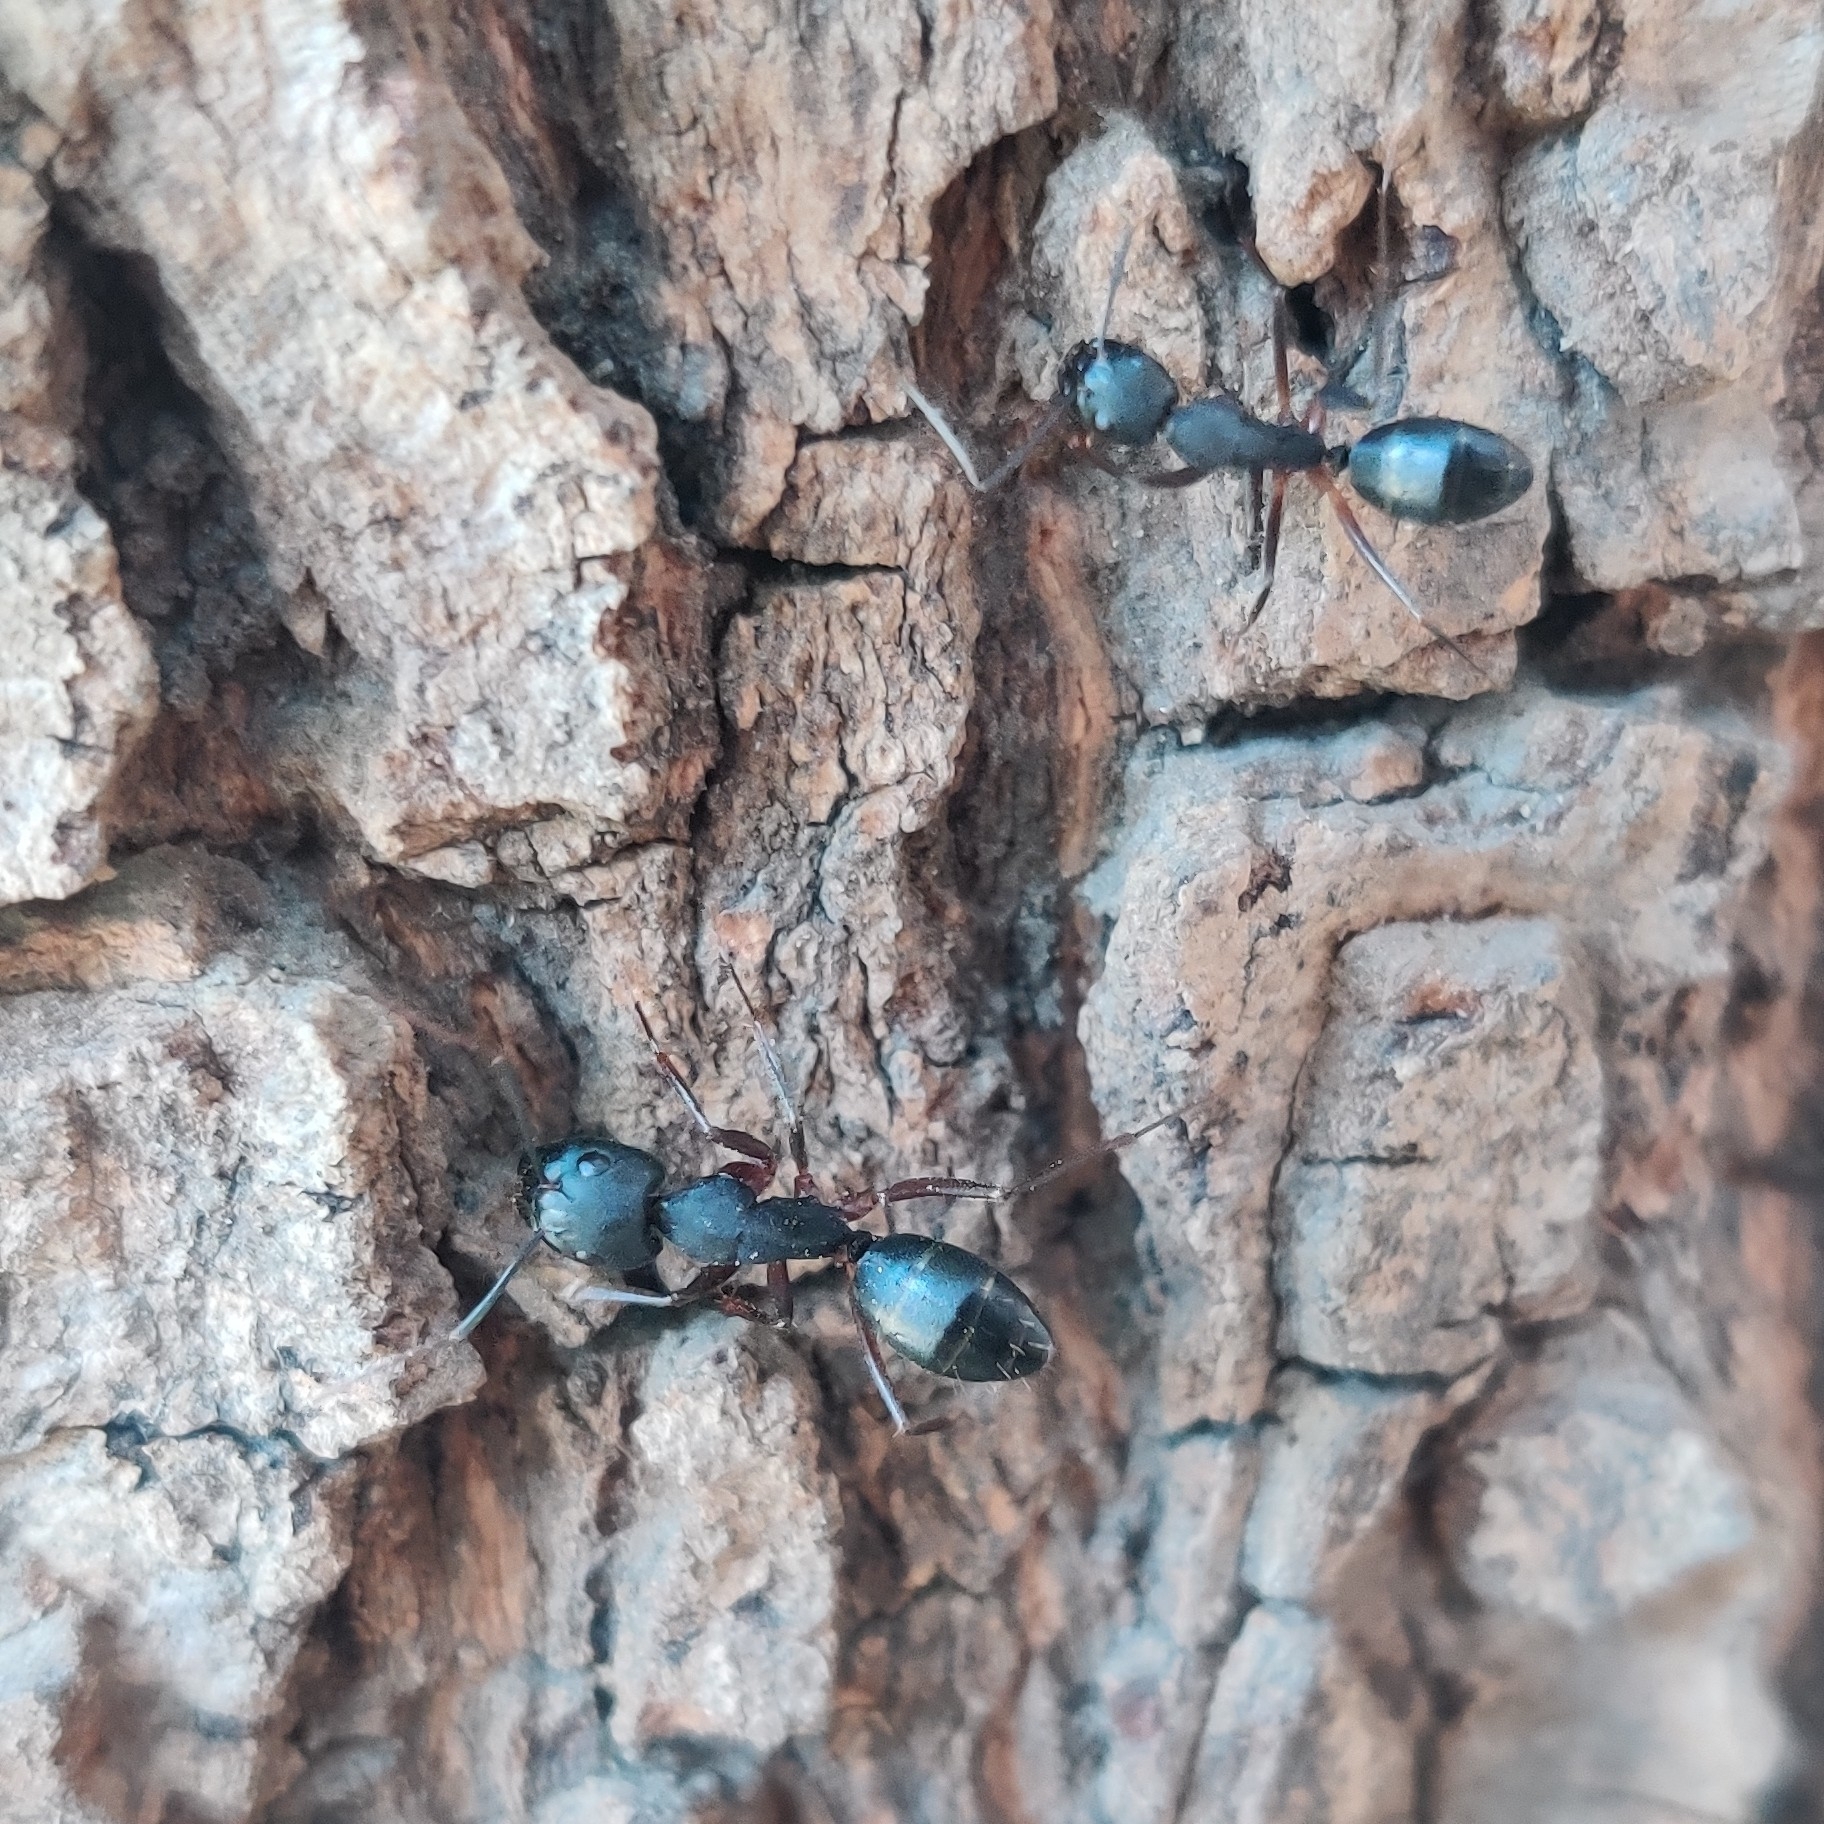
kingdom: Animalia
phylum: Arthropoda
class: Insecta
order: Hymenoptera
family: Formicidae
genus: Camponotus
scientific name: Camponotus compressus
